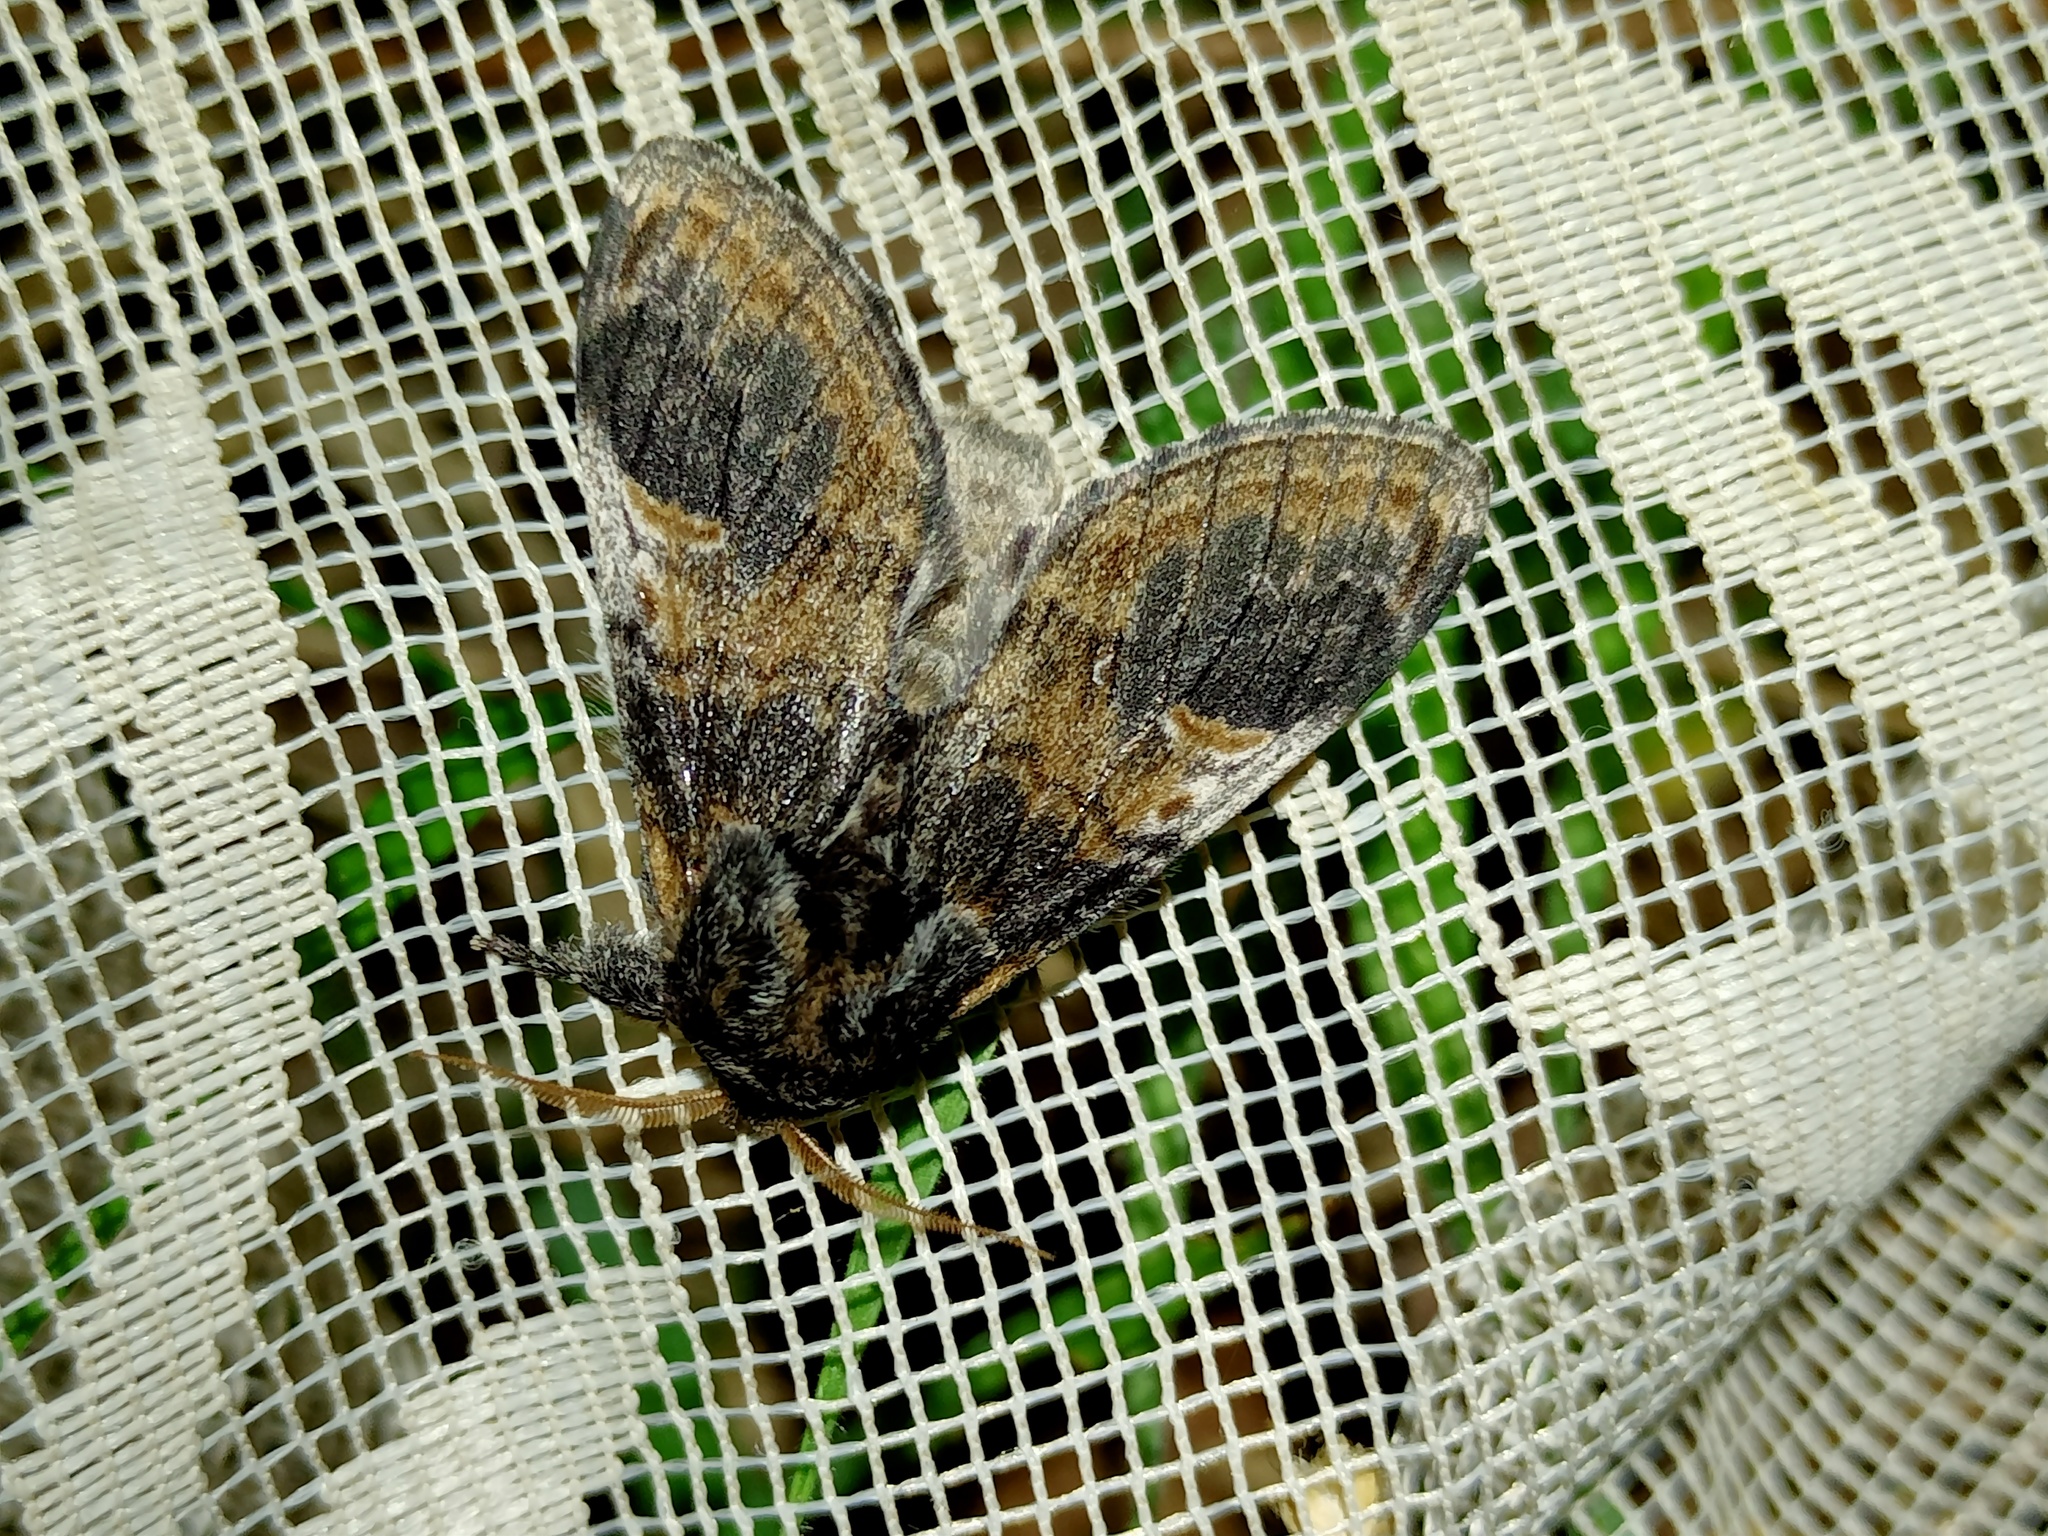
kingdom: Animalia
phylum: Arthropoda
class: Insecta
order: Lepidoptera
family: Notodontidae
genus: Notodonta
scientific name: Notodonta tritophus
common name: Three-humped prominent
